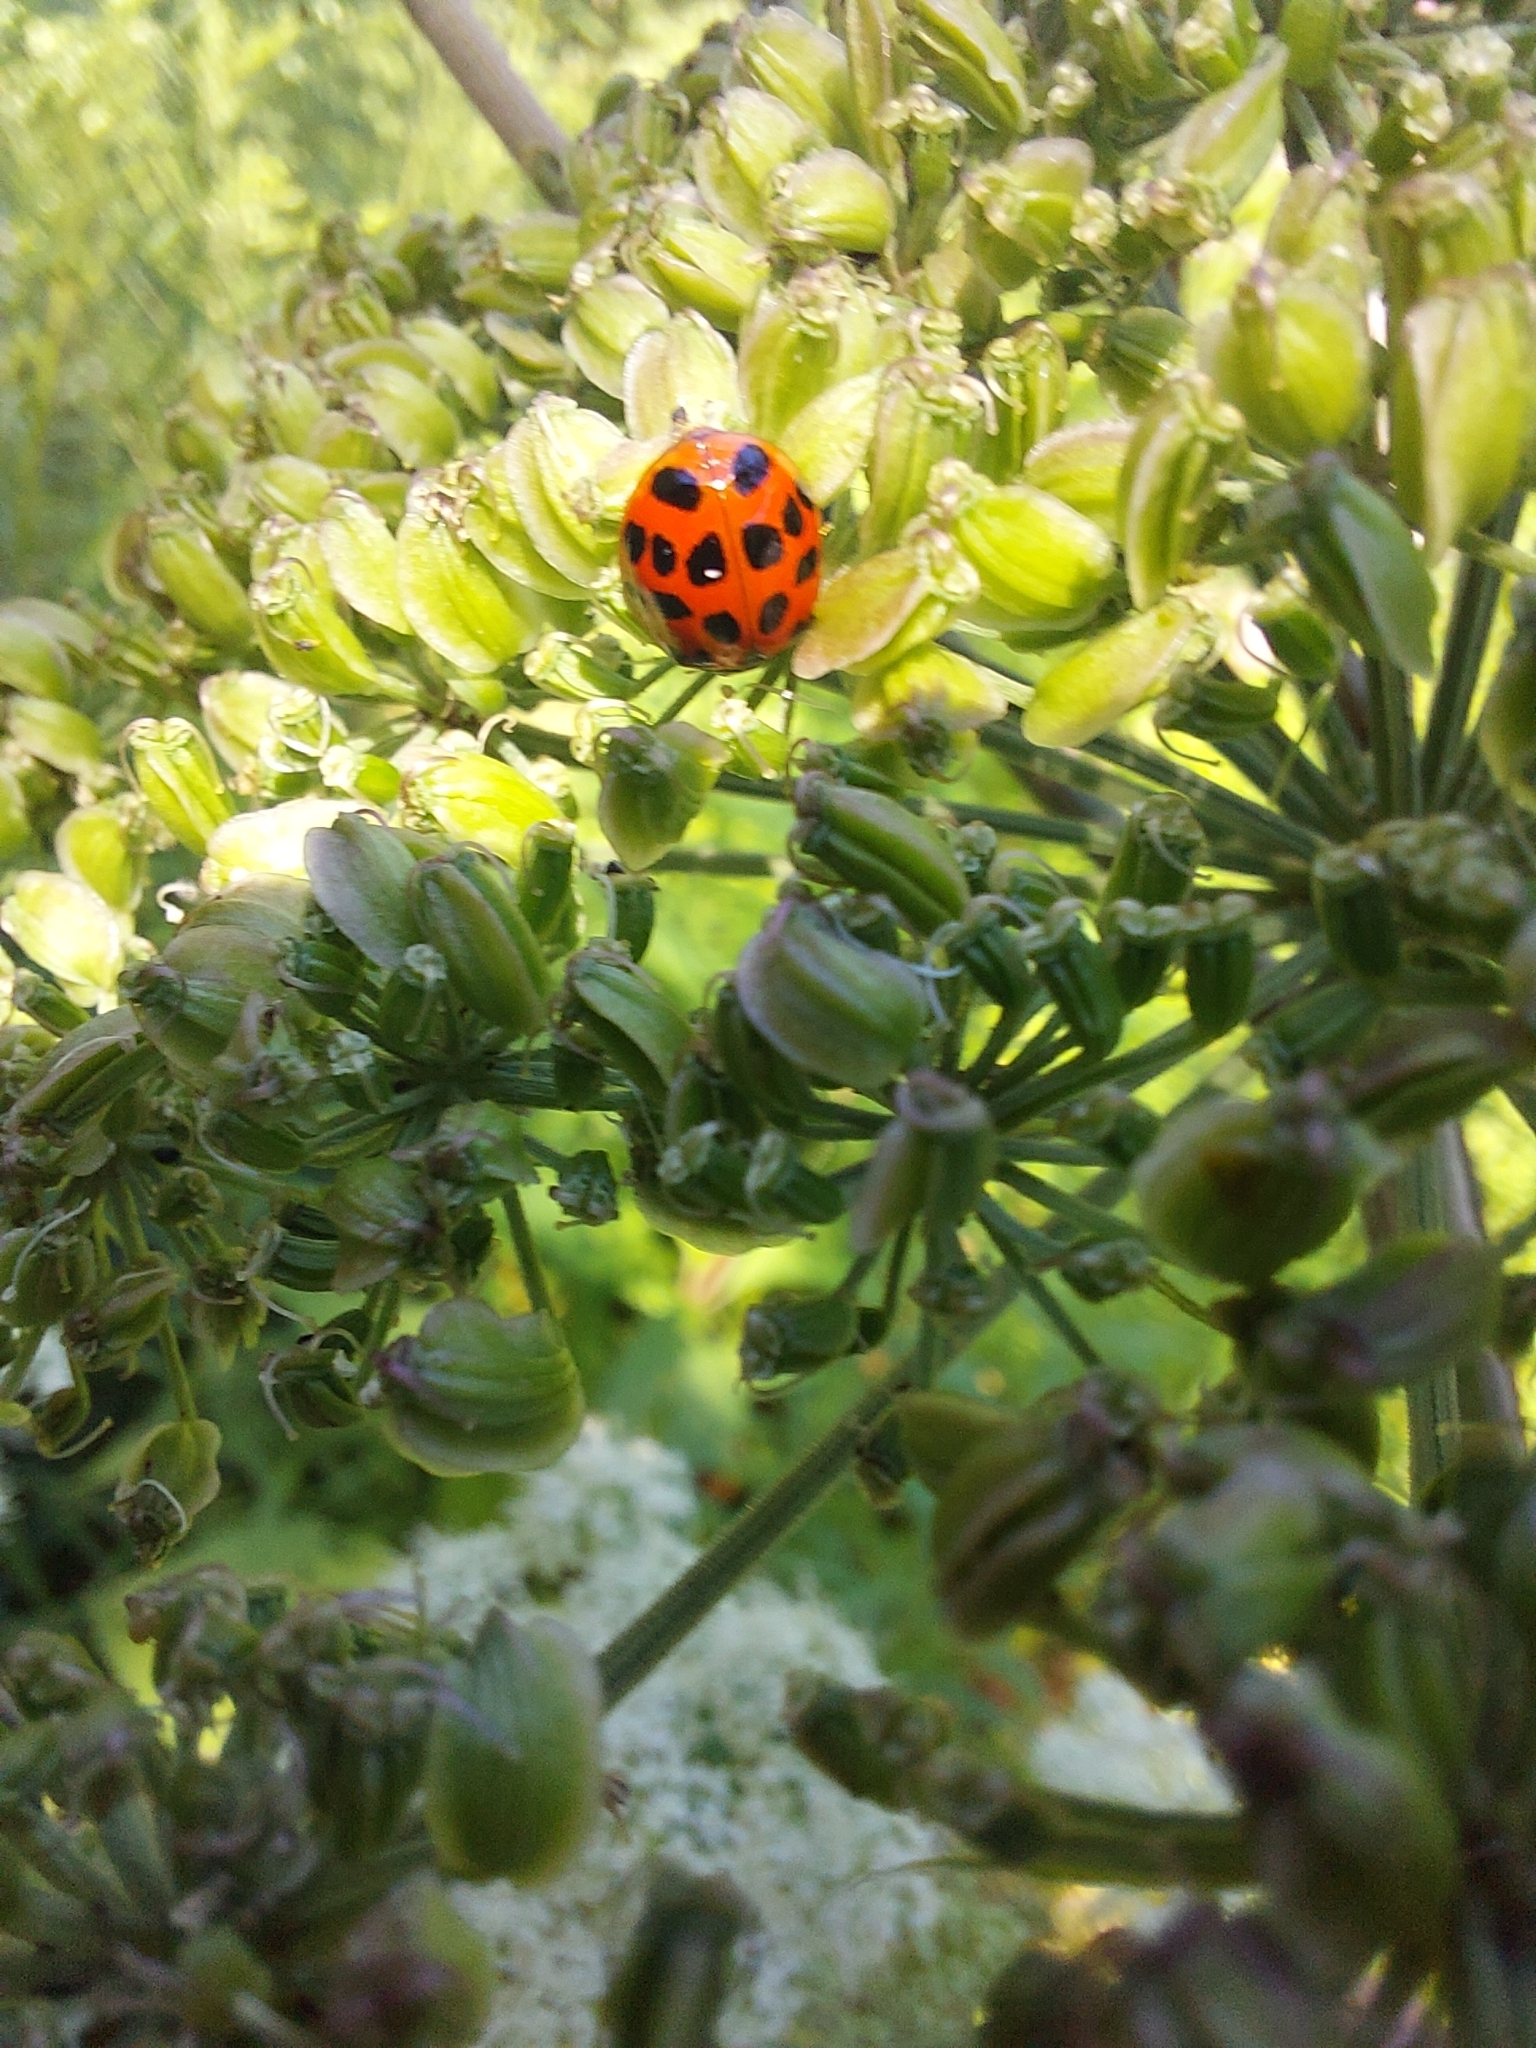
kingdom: Animalia
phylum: Arthropoda
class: Insecta
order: Coleoptera
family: Coccinellidae
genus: Harmonia
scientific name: Harmonia axyridis
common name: Harlequin ladybird
